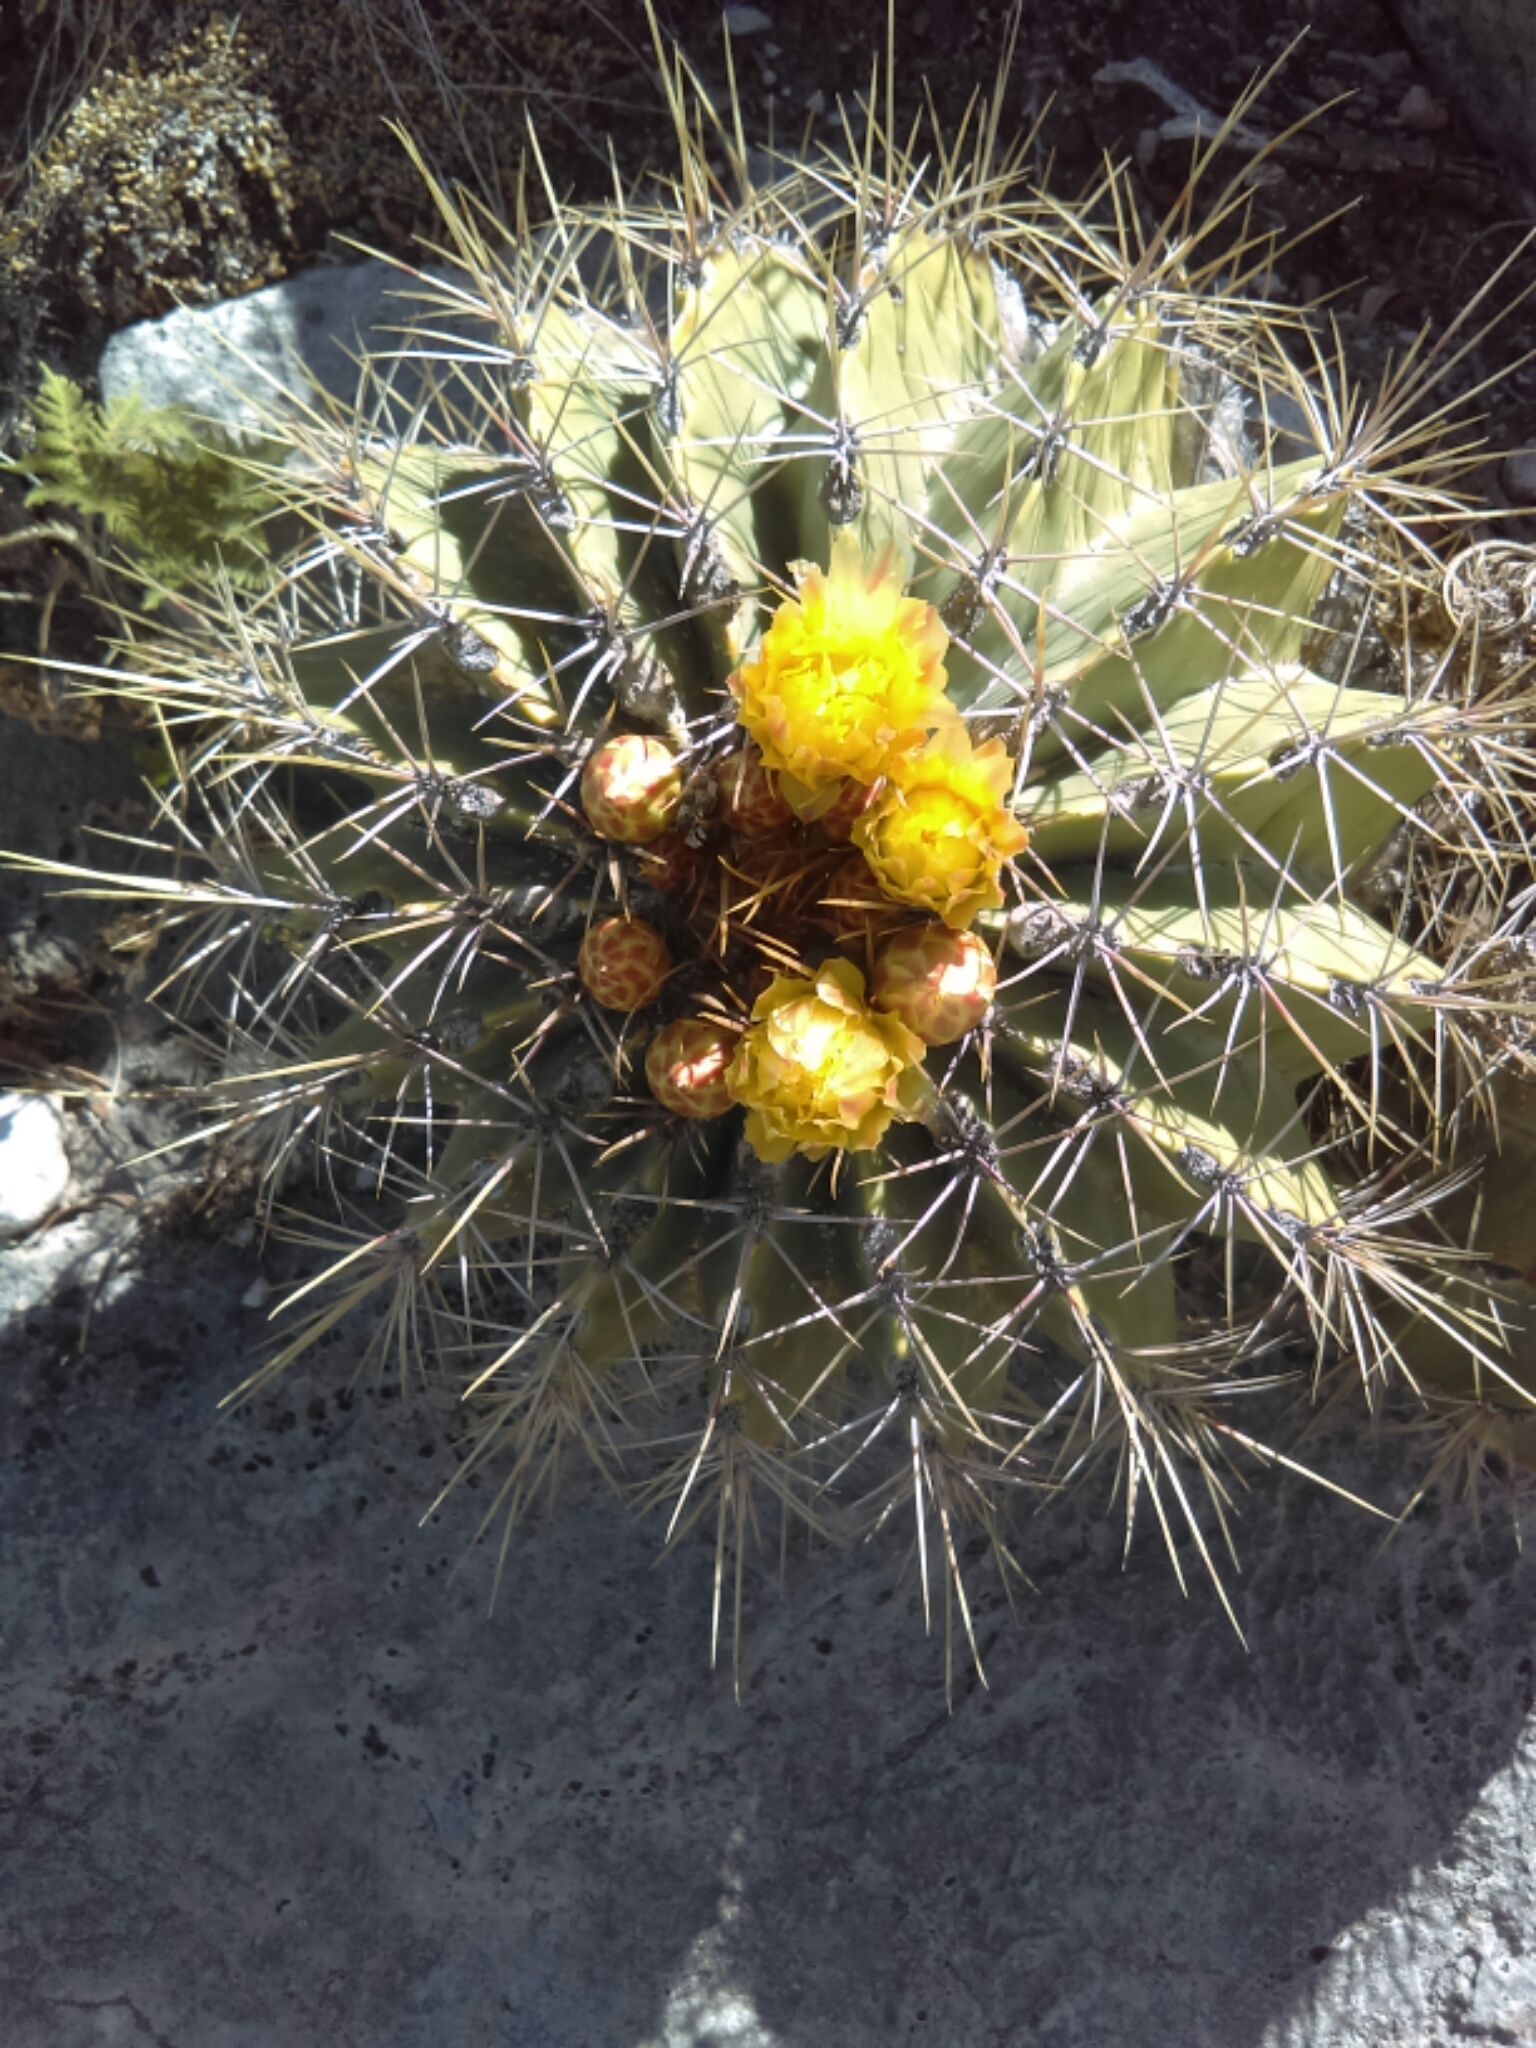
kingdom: Plantae
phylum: Tracheophyta
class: Magnoliopsida
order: Caryophyllales
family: Cactaceae
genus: Parrycactus
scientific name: Parrycactus echidne
